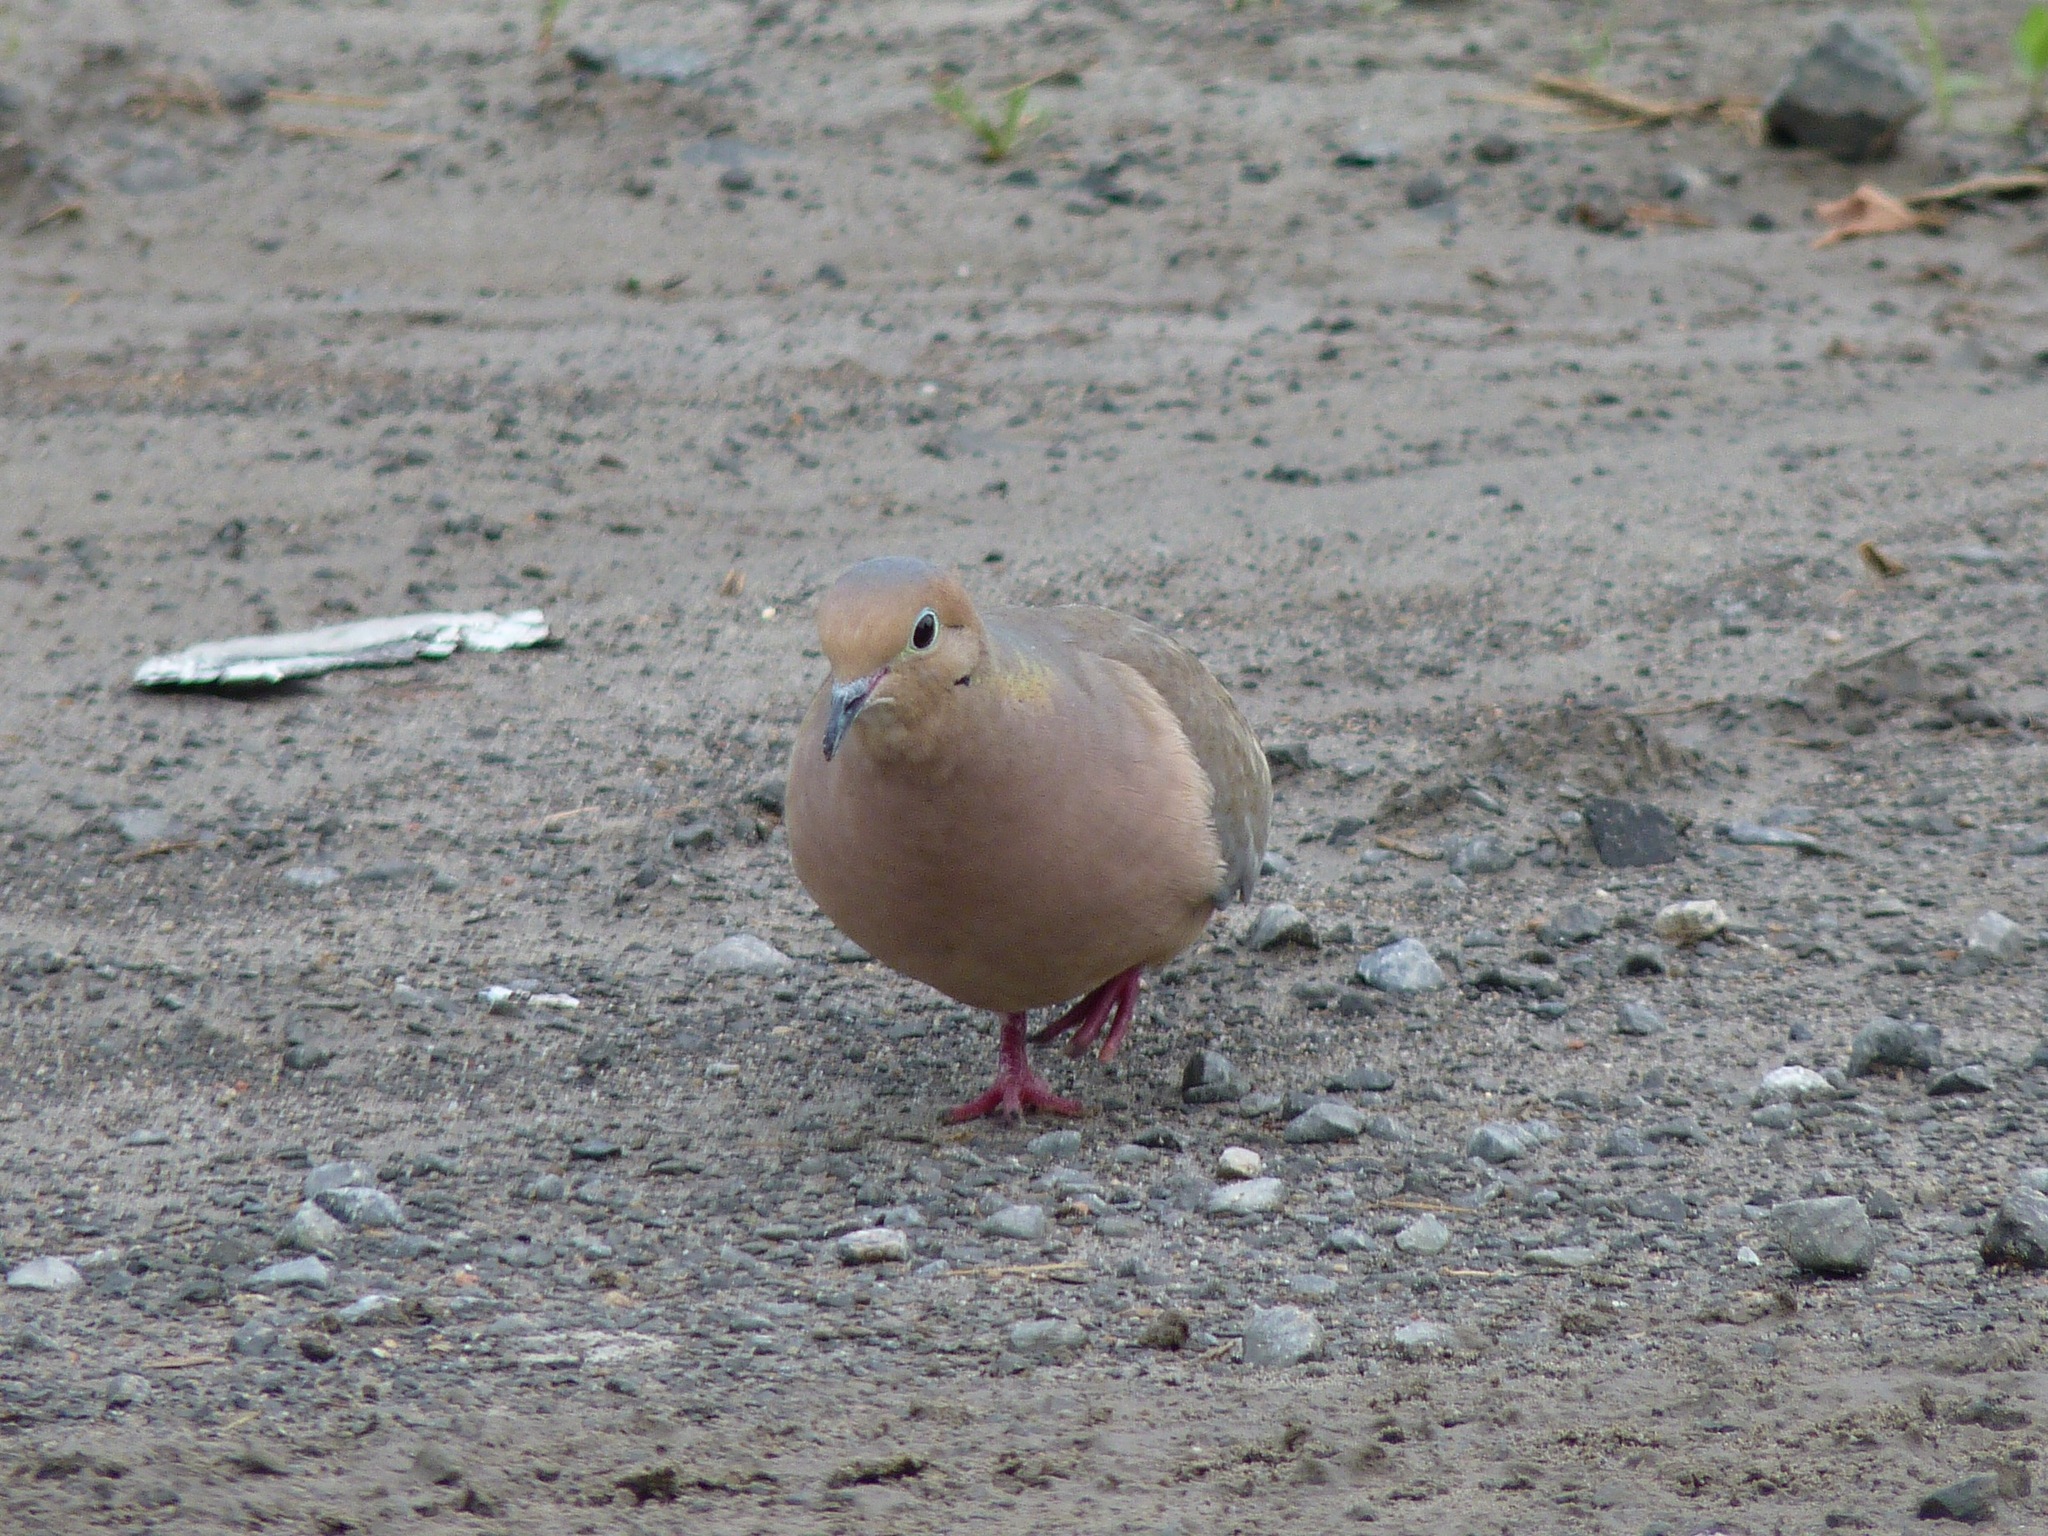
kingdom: Animalia
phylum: Chordata
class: Aves
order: Columbiformes
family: Columbidae
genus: Zenaida
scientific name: Zenaida macroura
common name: Mourning dove
